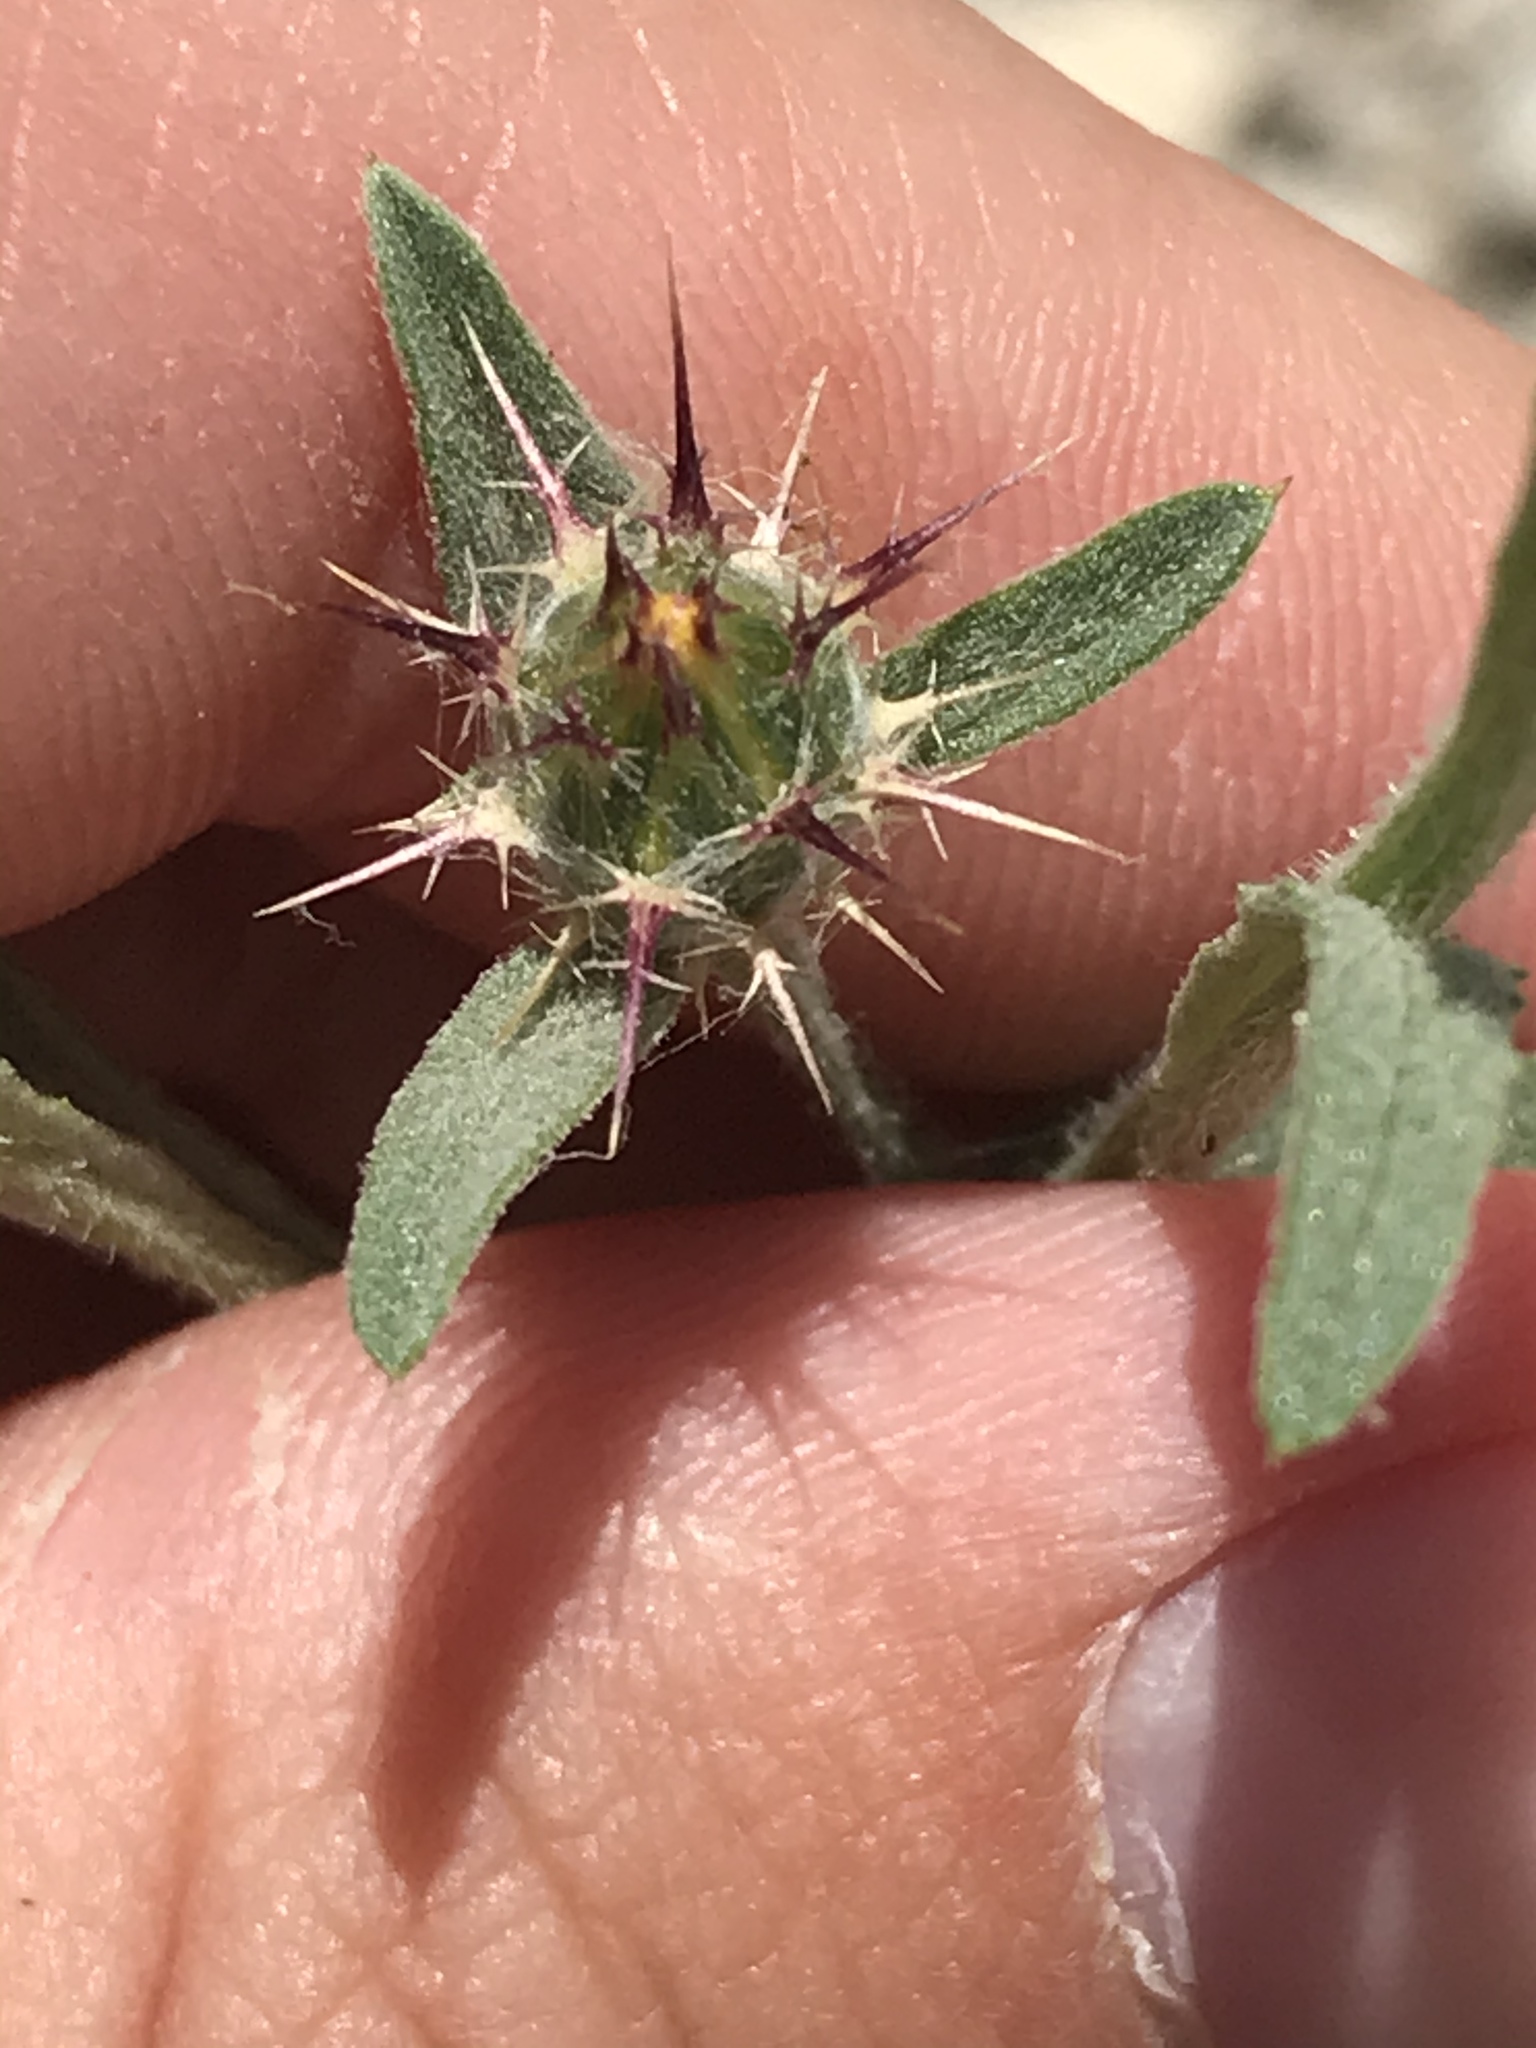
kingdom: Plantae
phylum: Tracheophyta
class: Magnoliopsida
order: Asterales
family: Asteraceae
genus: Centaurea
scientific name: Centaurea melitensis
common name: Maltese star-thistle
